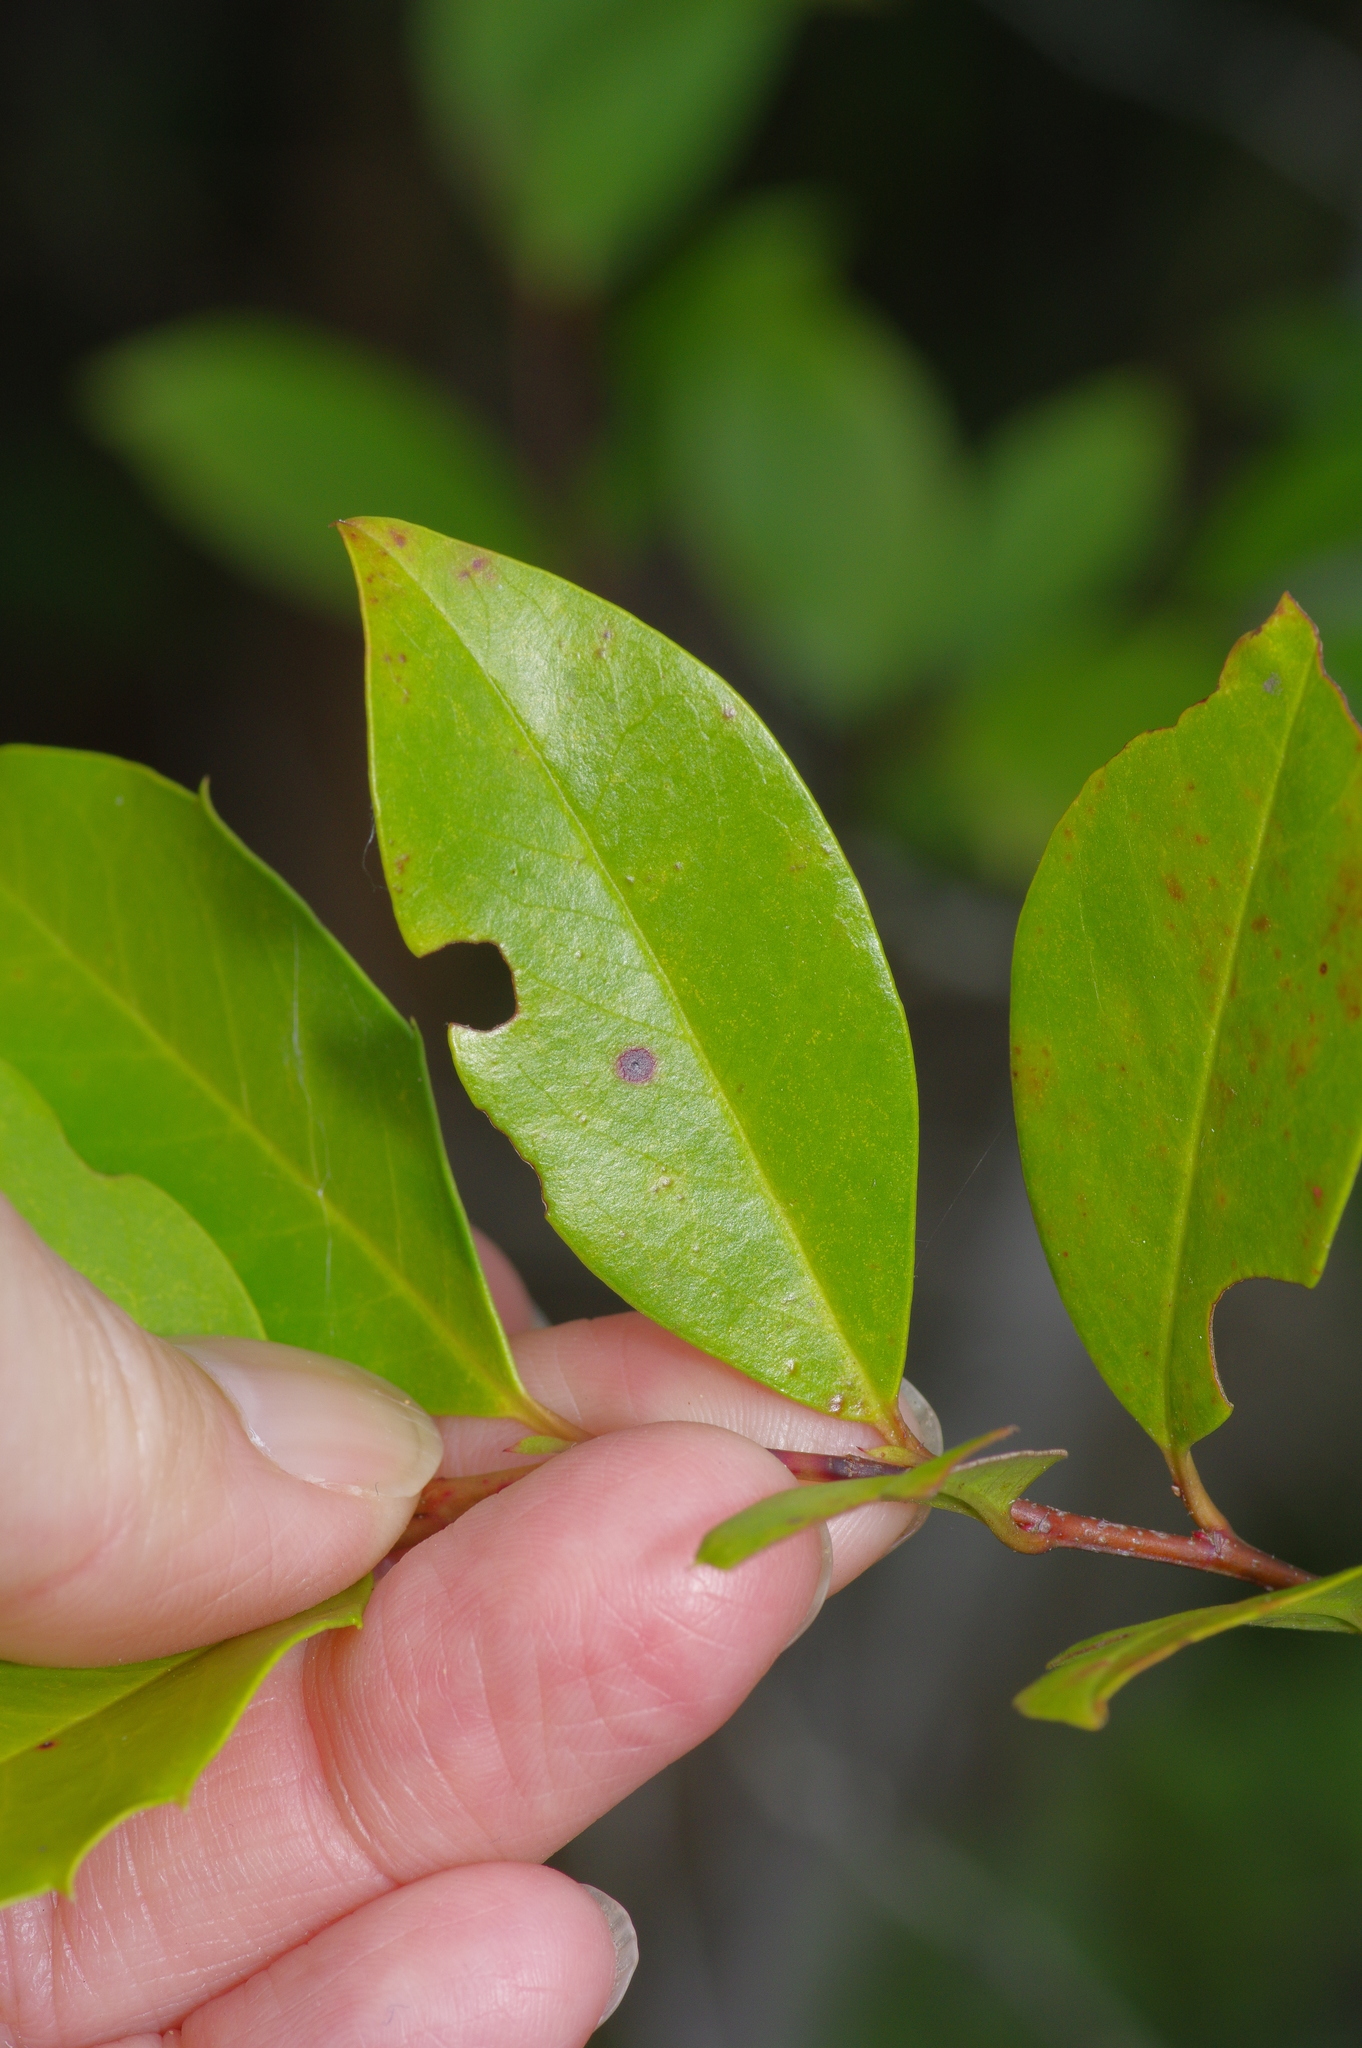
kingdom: Plantae
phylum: Tracheophyta
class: Magnoliopsida
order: Rosales
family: Rosaceae
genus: Prunus
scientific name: Prunus caroliniana
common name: Carolina laurel cherry
